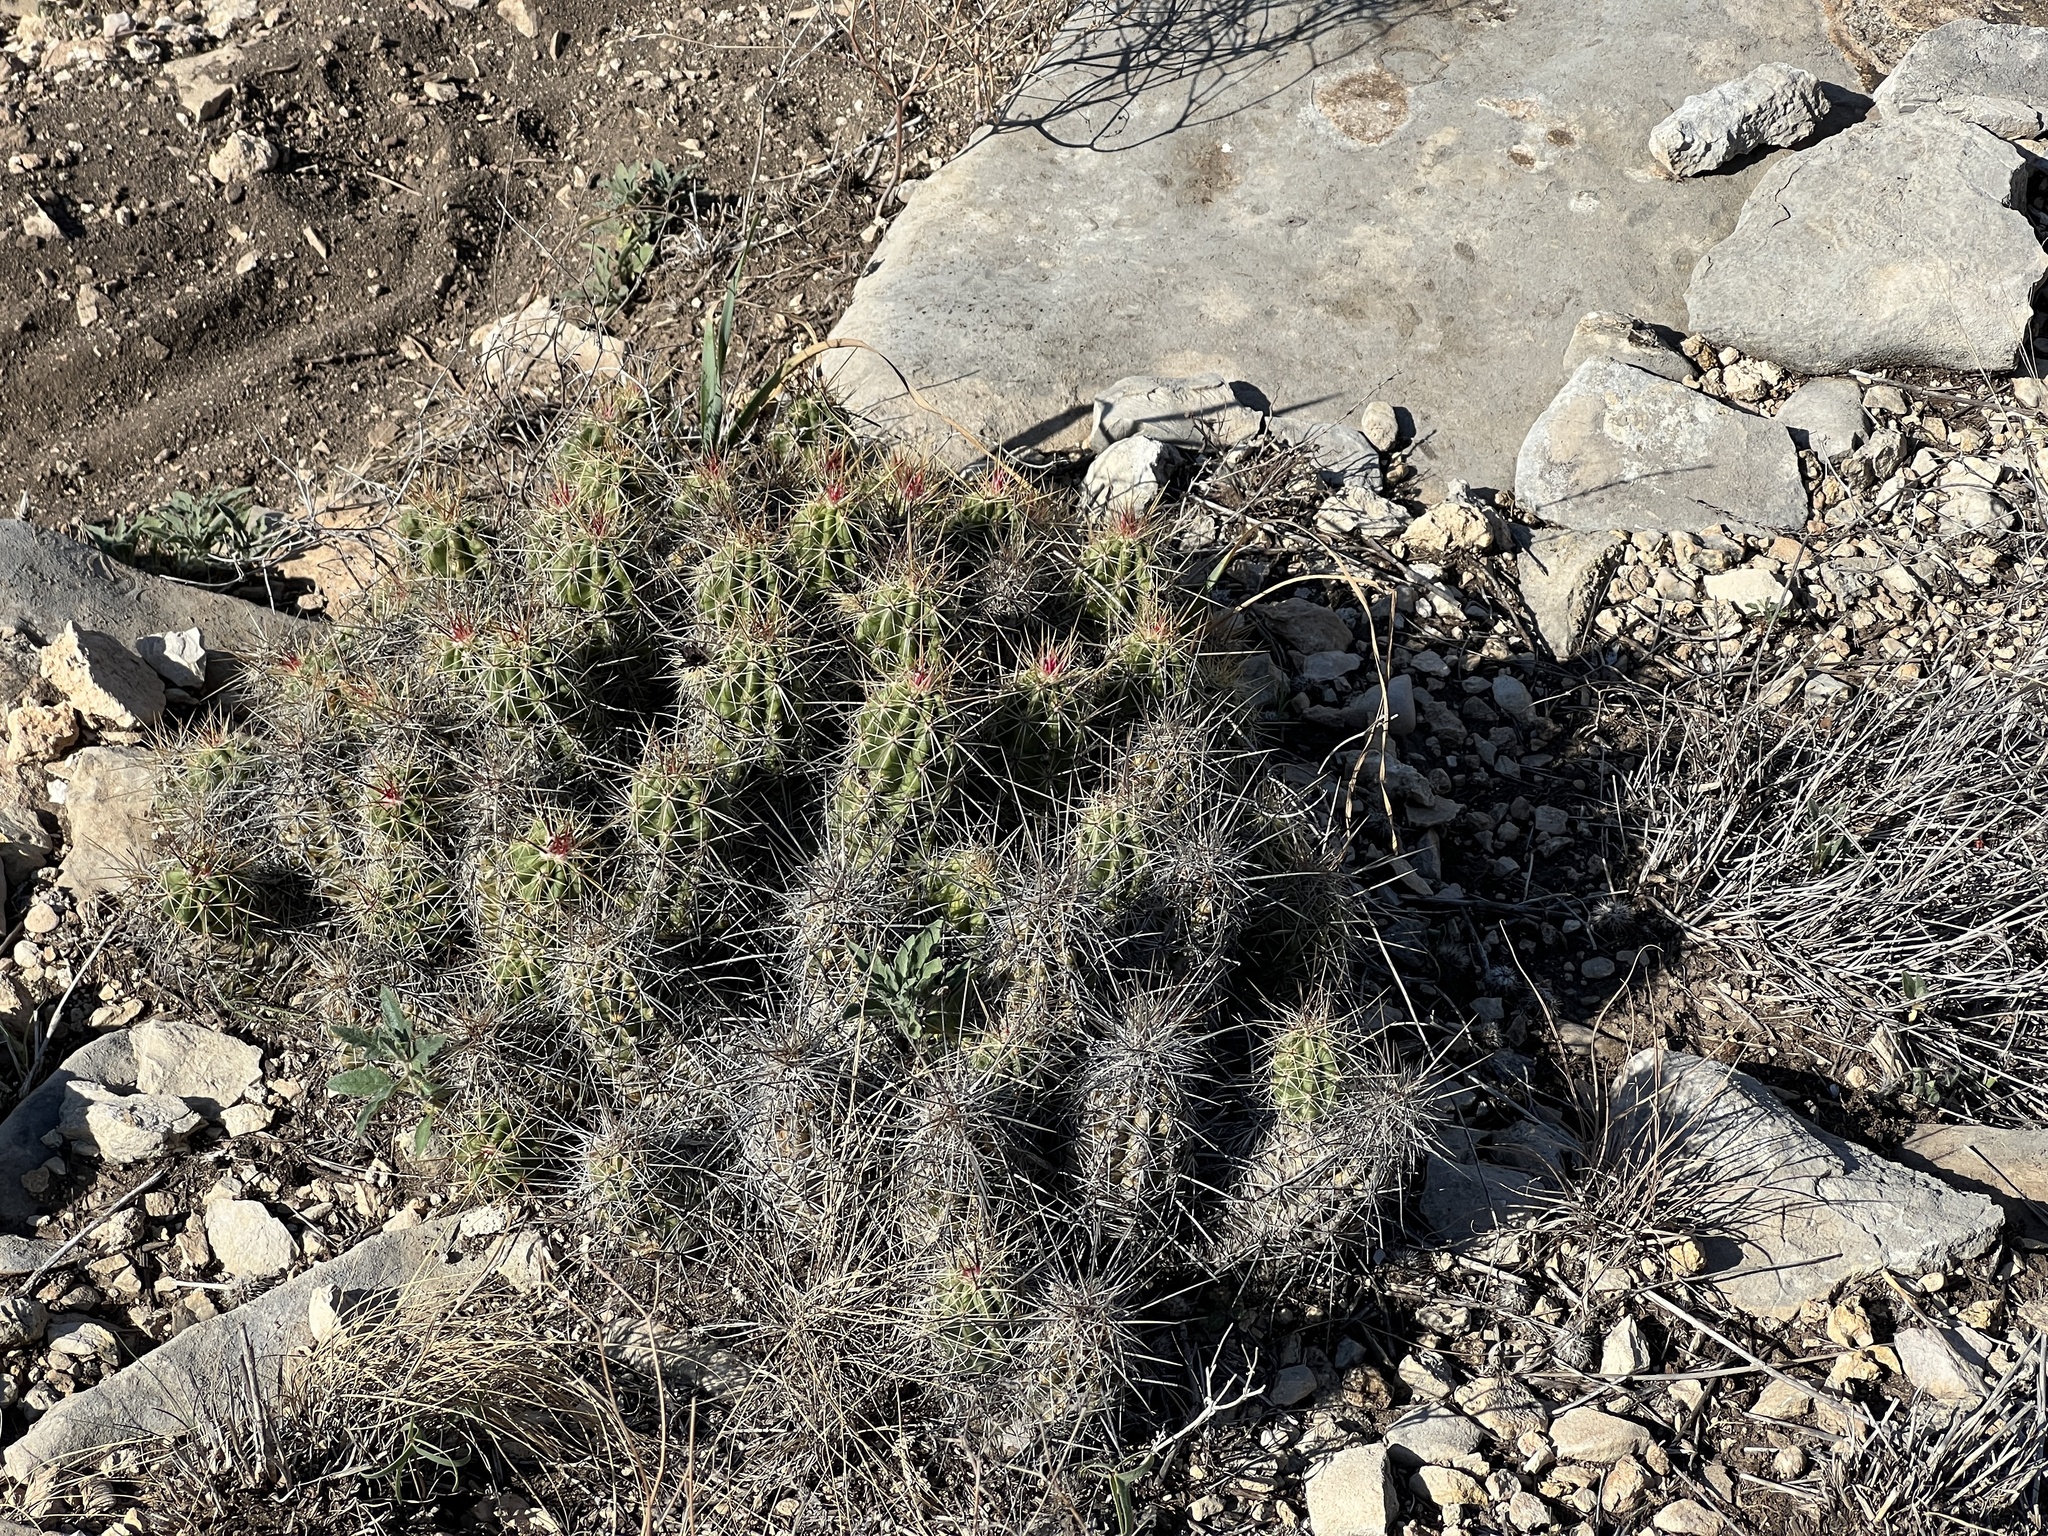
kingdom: Plantae
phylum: Tracheophyta
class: Magnoliopsida
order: Caryophyllales
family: Cactaceae
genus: Echinocereus
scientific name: Echinocereus enneacanthus
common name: Pitaya
